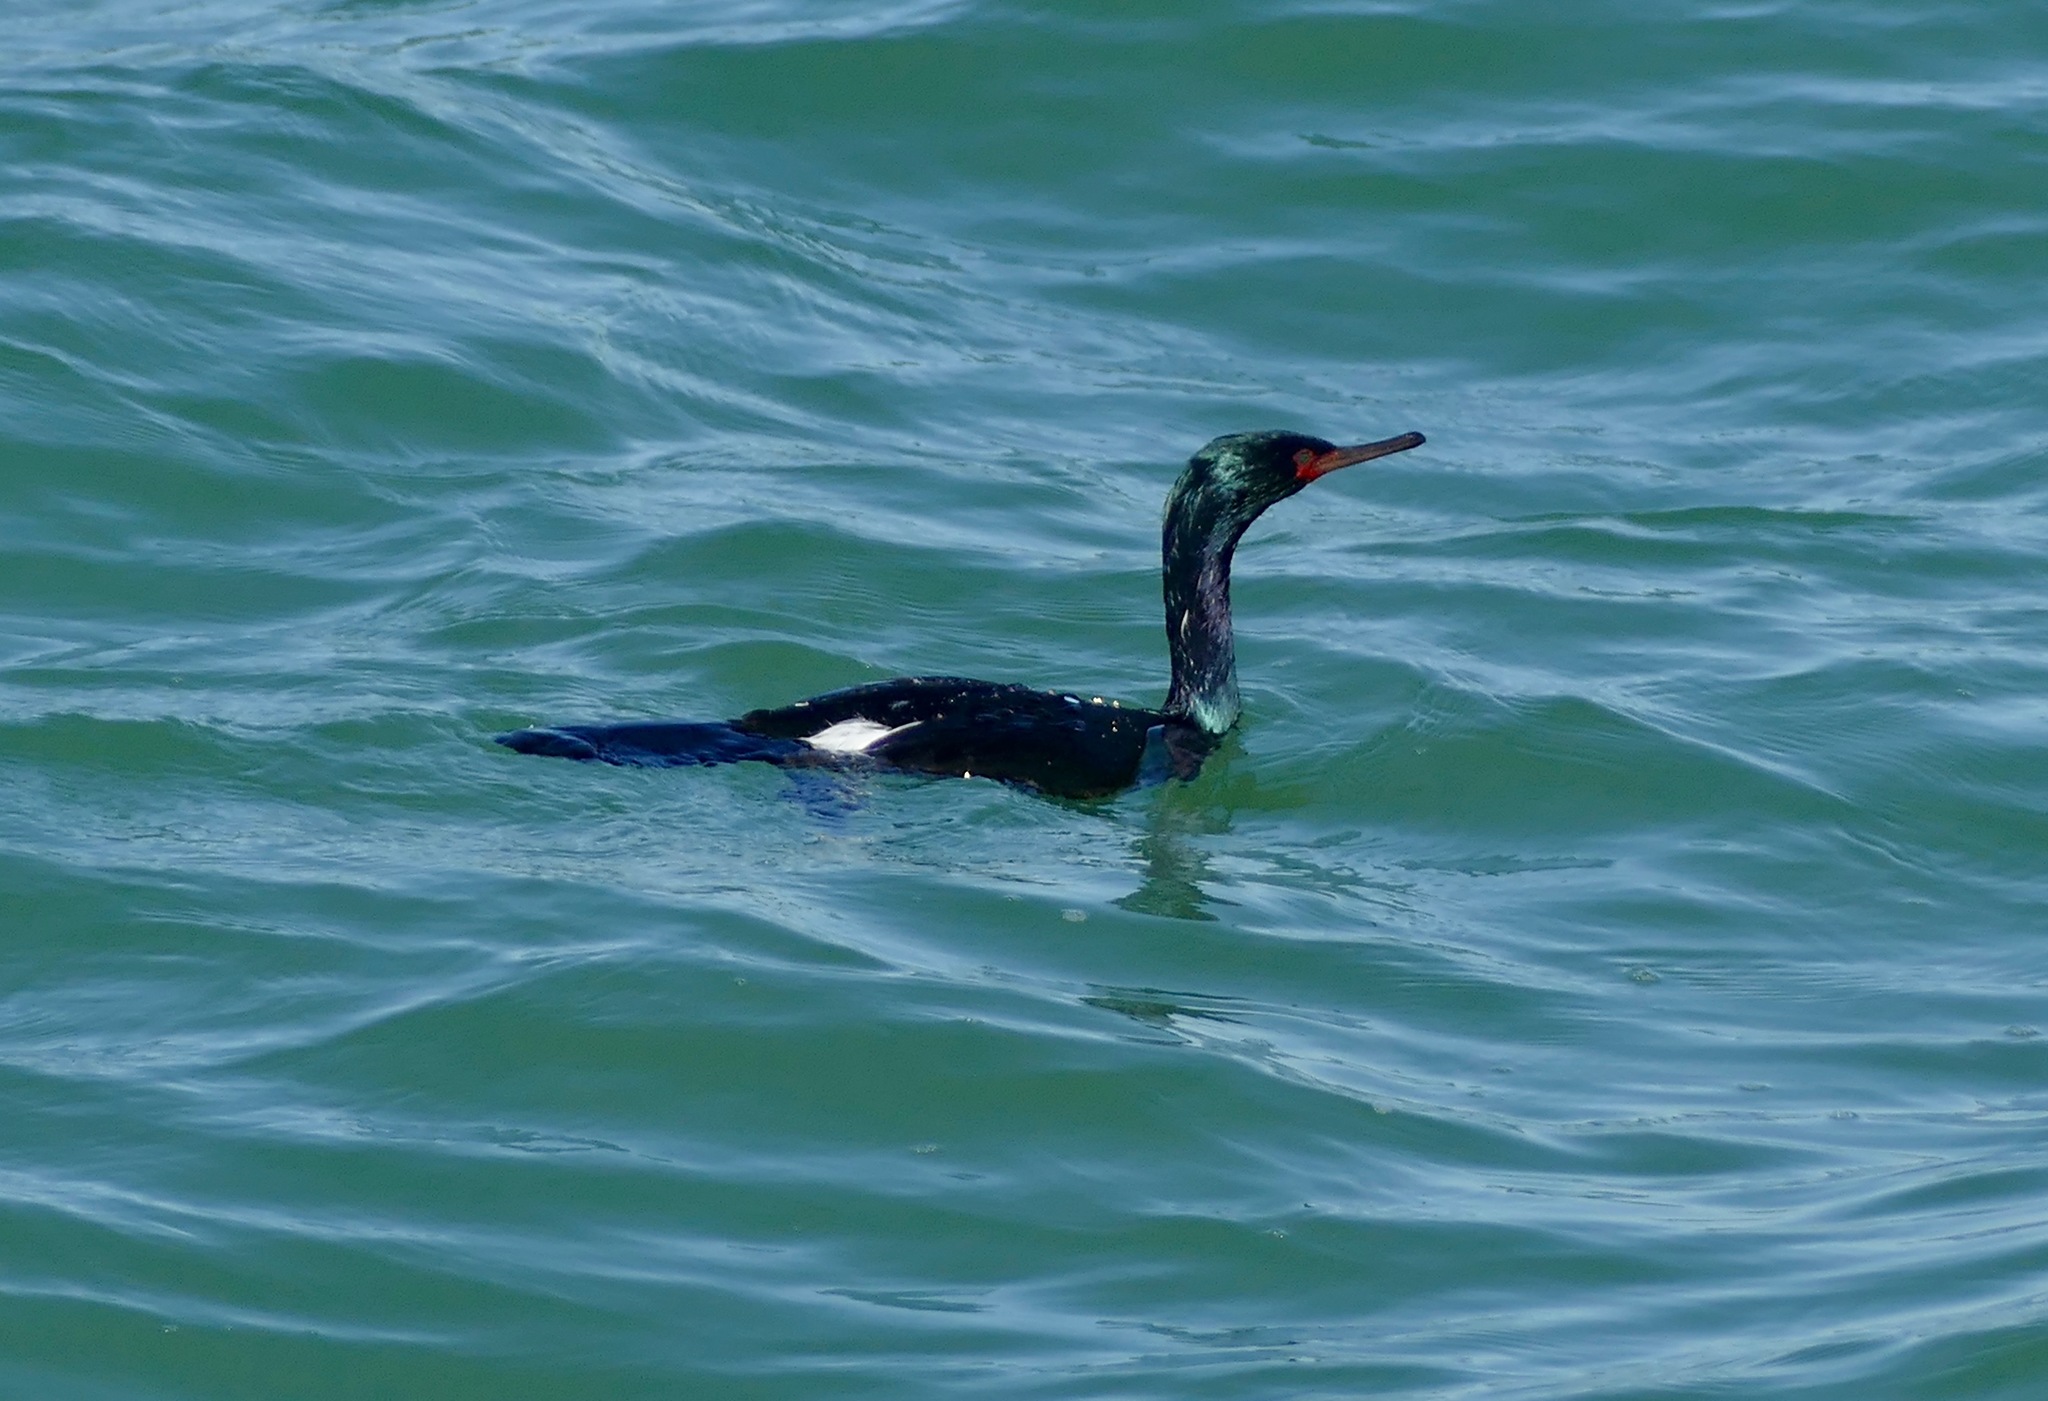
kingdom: Animalia
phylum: Chordata
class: Aves
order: Suliformes
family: Phalacrocoracidae
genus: Phalacrocorax
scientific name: Phalacrocorax pelagicus
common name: Pelagic cormorant
